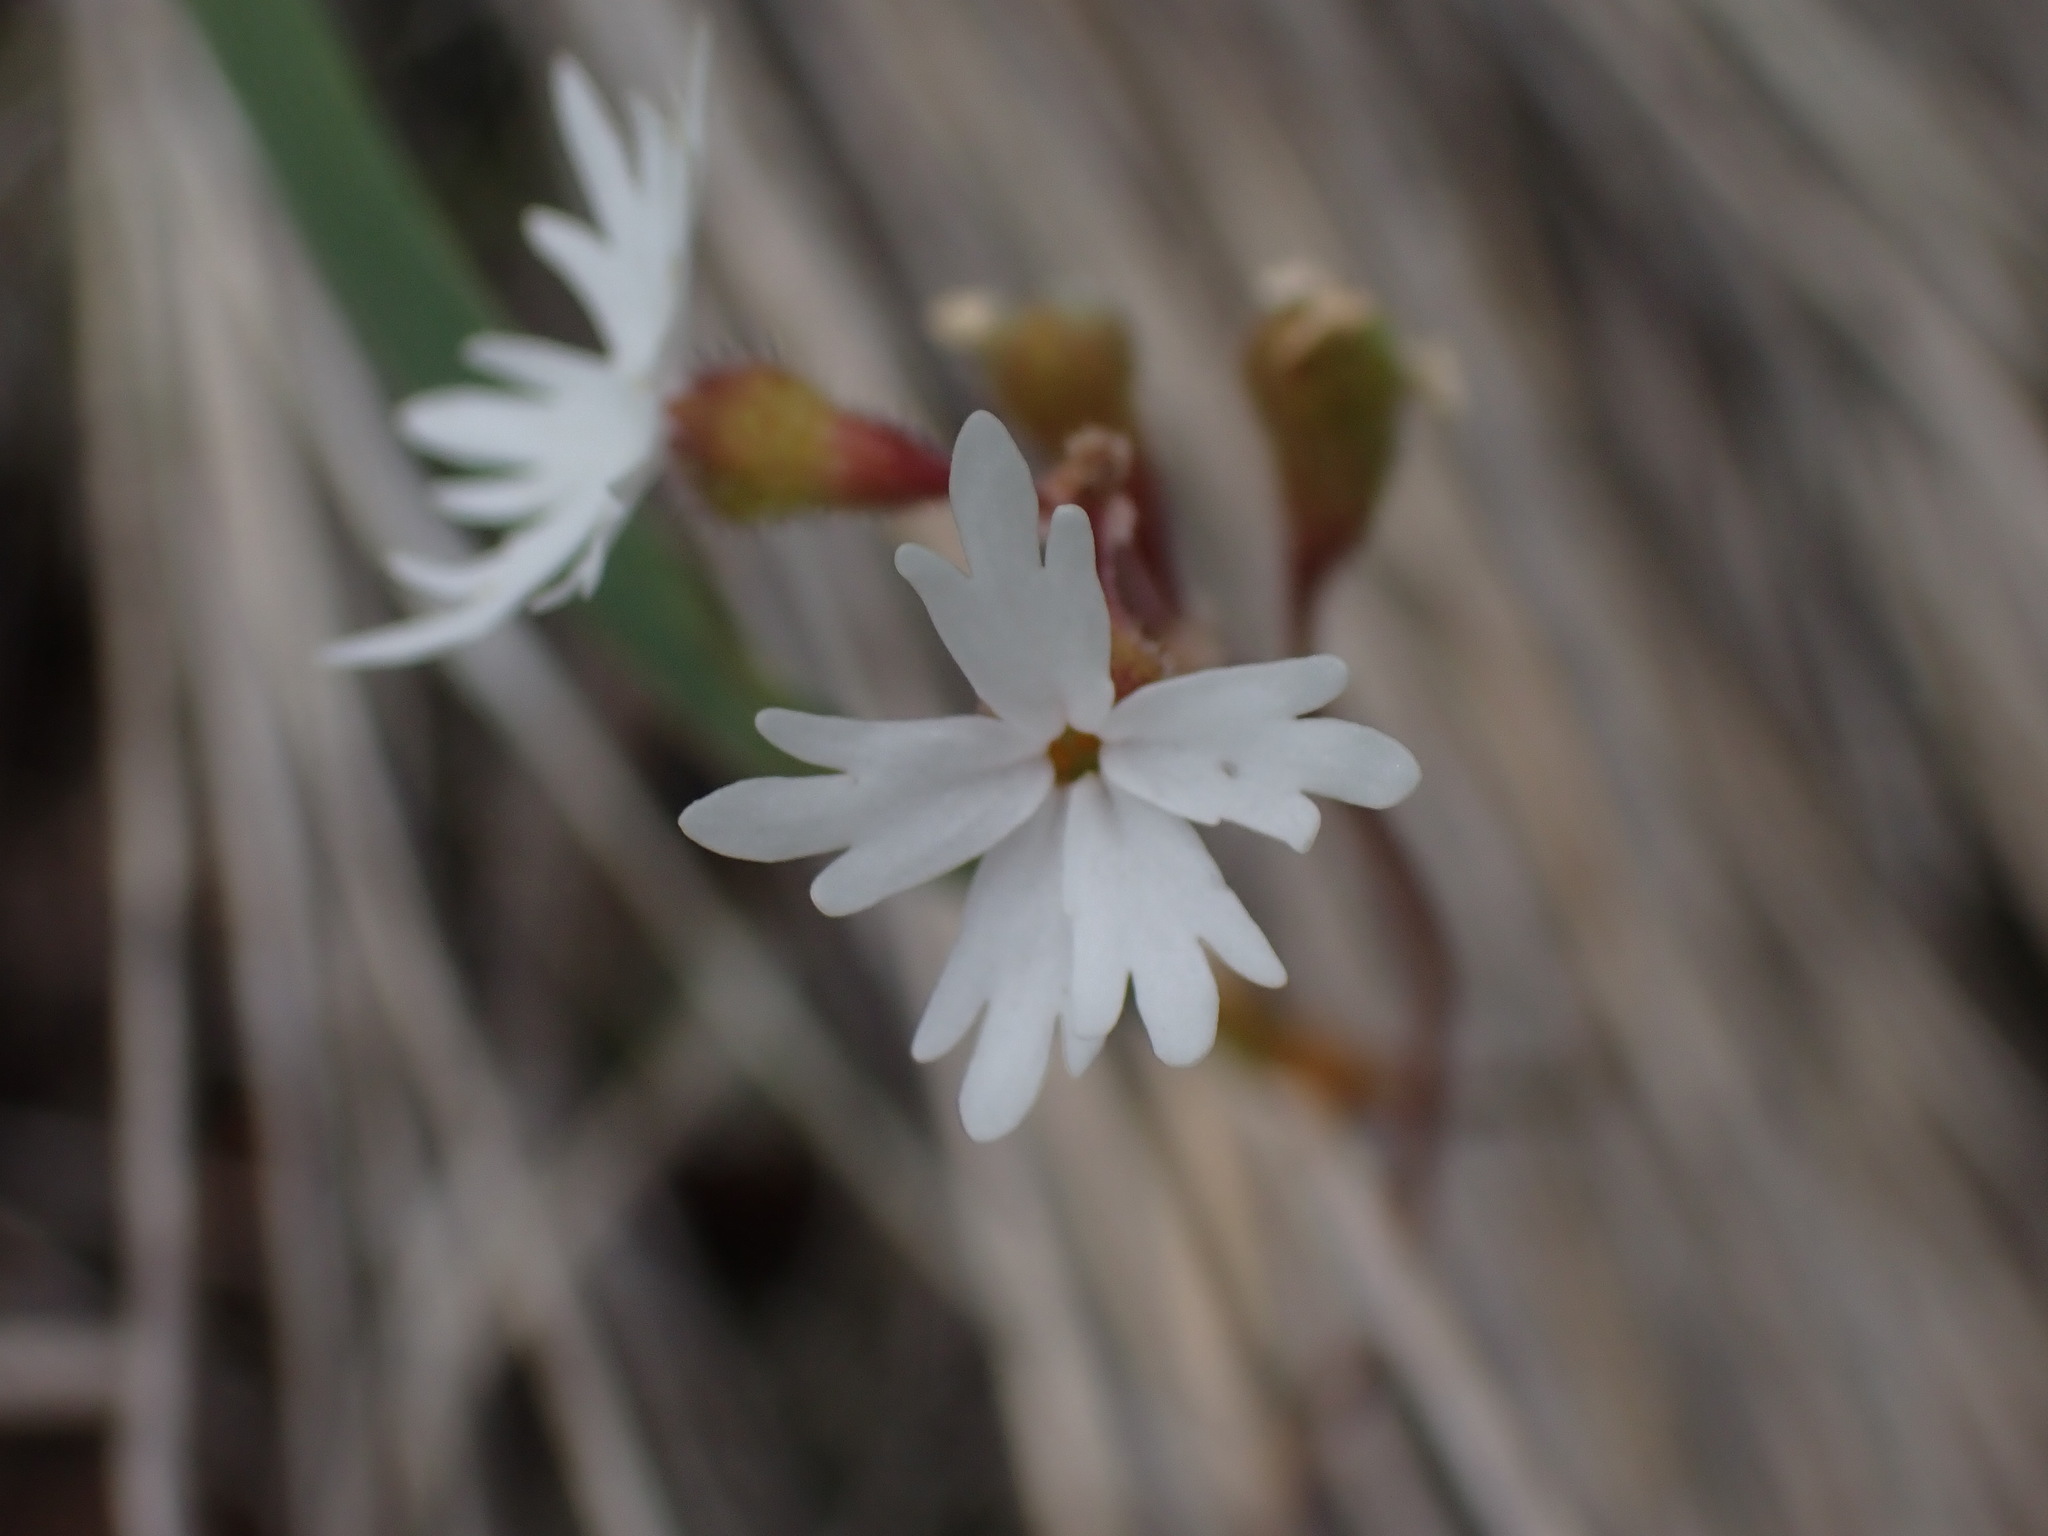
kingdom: Plantae
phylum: Tracheophyta
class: Magnoliopsida
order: Saxifragales
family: Saxifragaceae
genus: Lithophragma
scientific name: Lithophragma parviflorum
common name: Small-flowered fringe-cup
